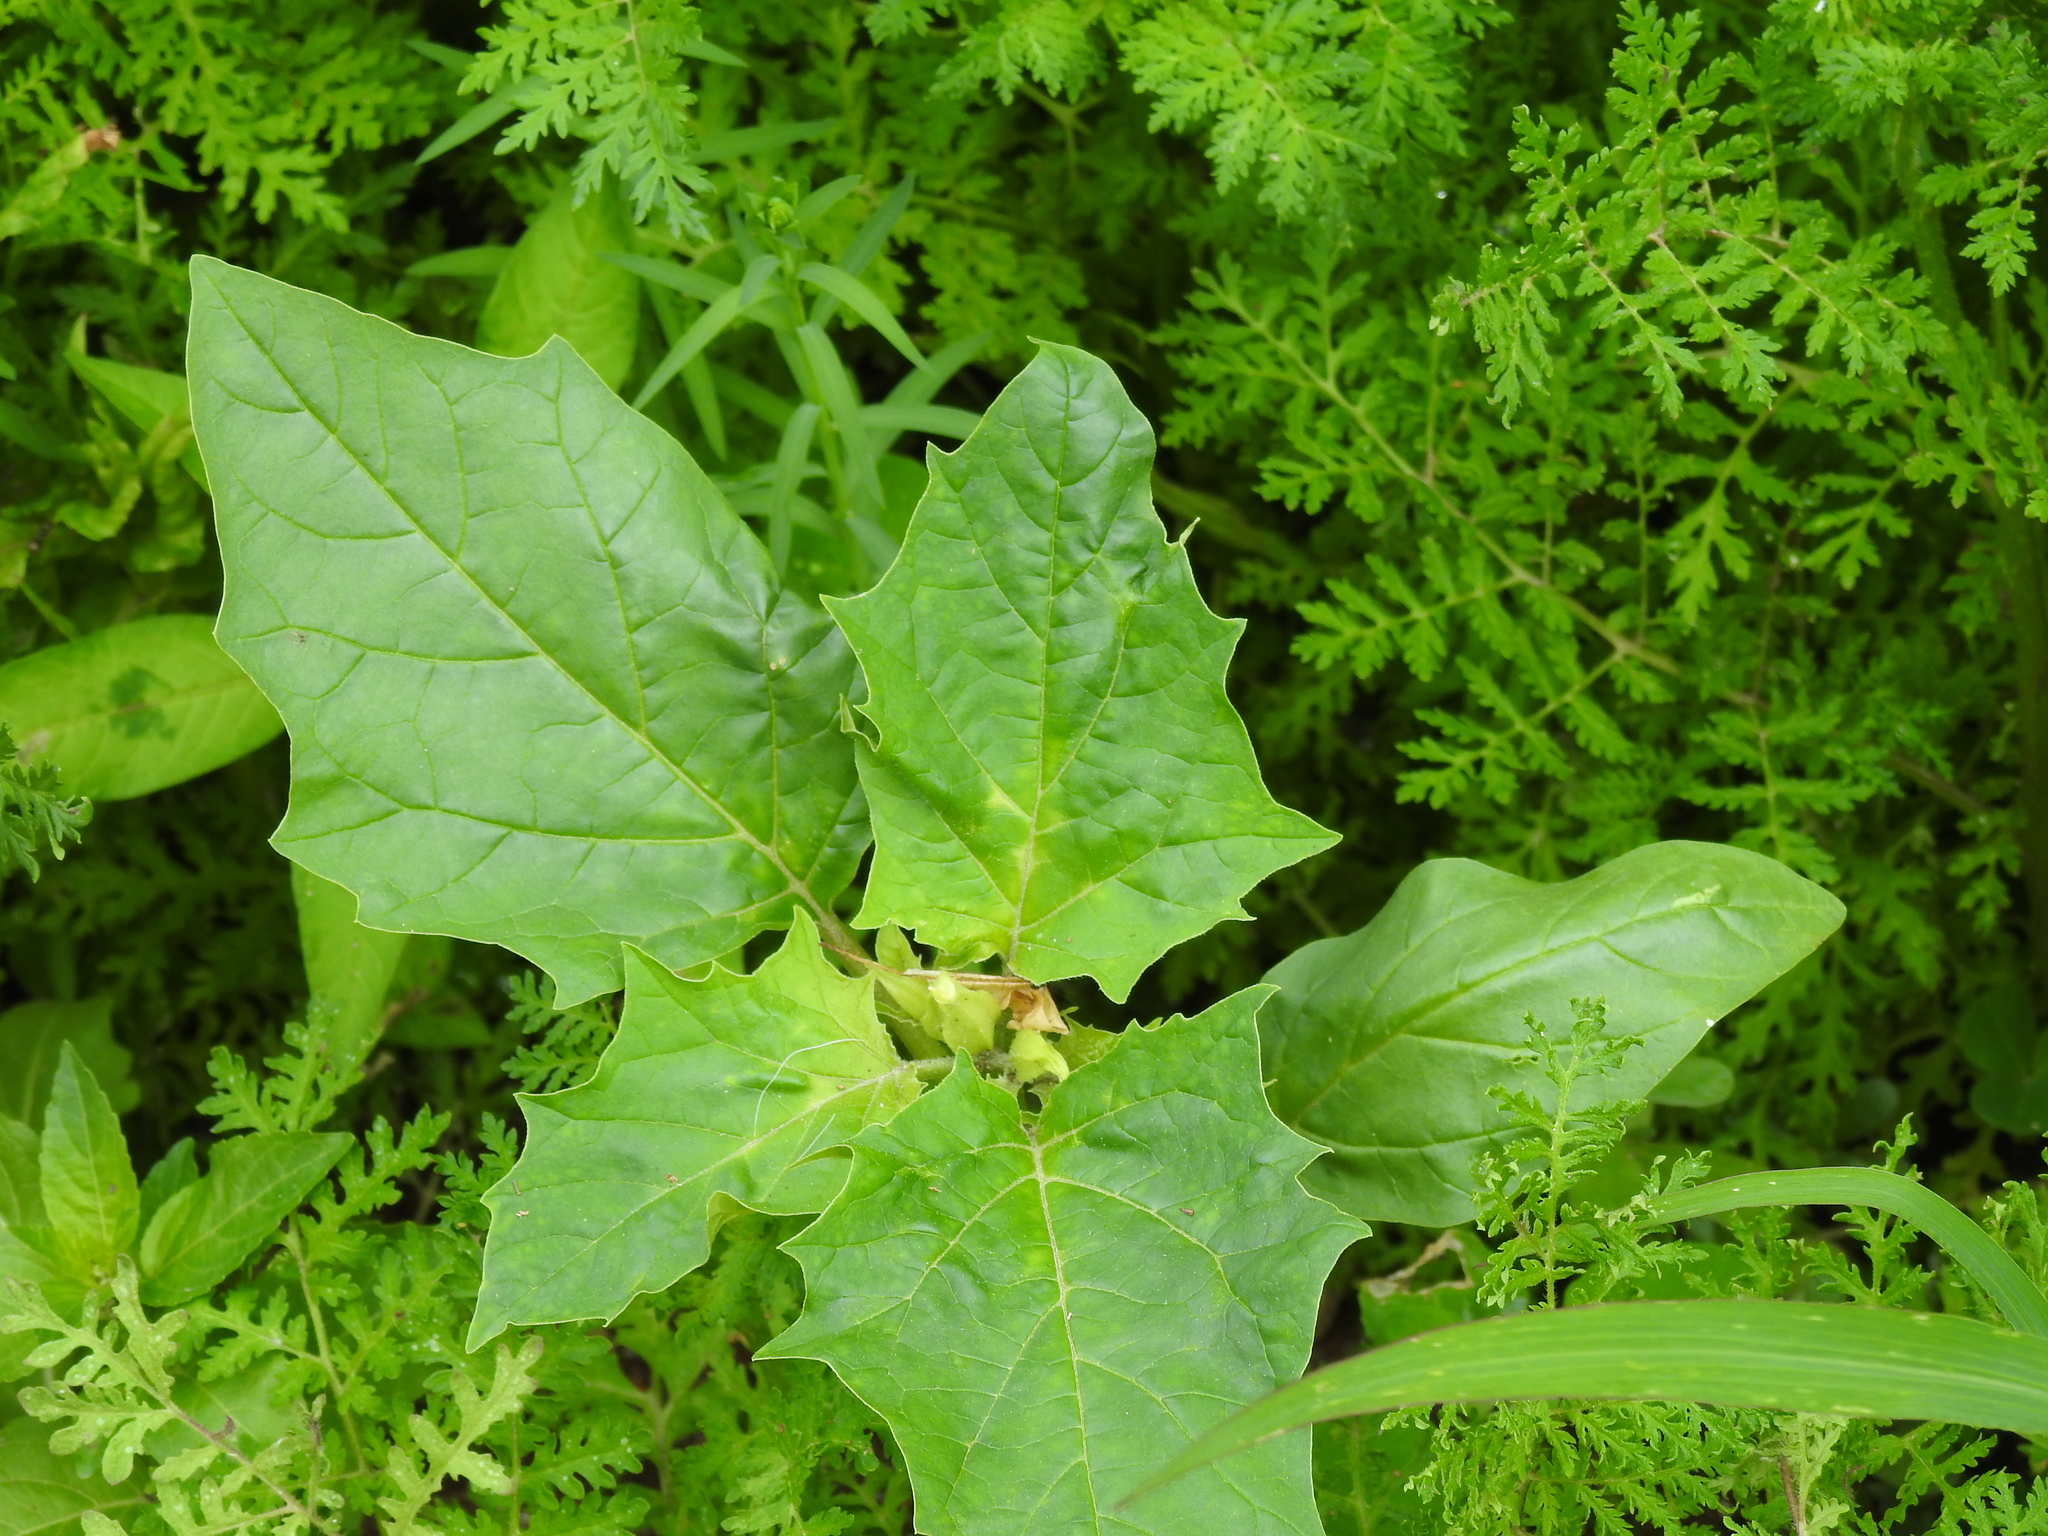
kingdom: Plantae
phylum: Tracheophyta
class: Magnoliopsida
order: Solanales
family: Solanaceae
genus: Datura
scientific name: Datura stramonium
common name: Thorn-apple
